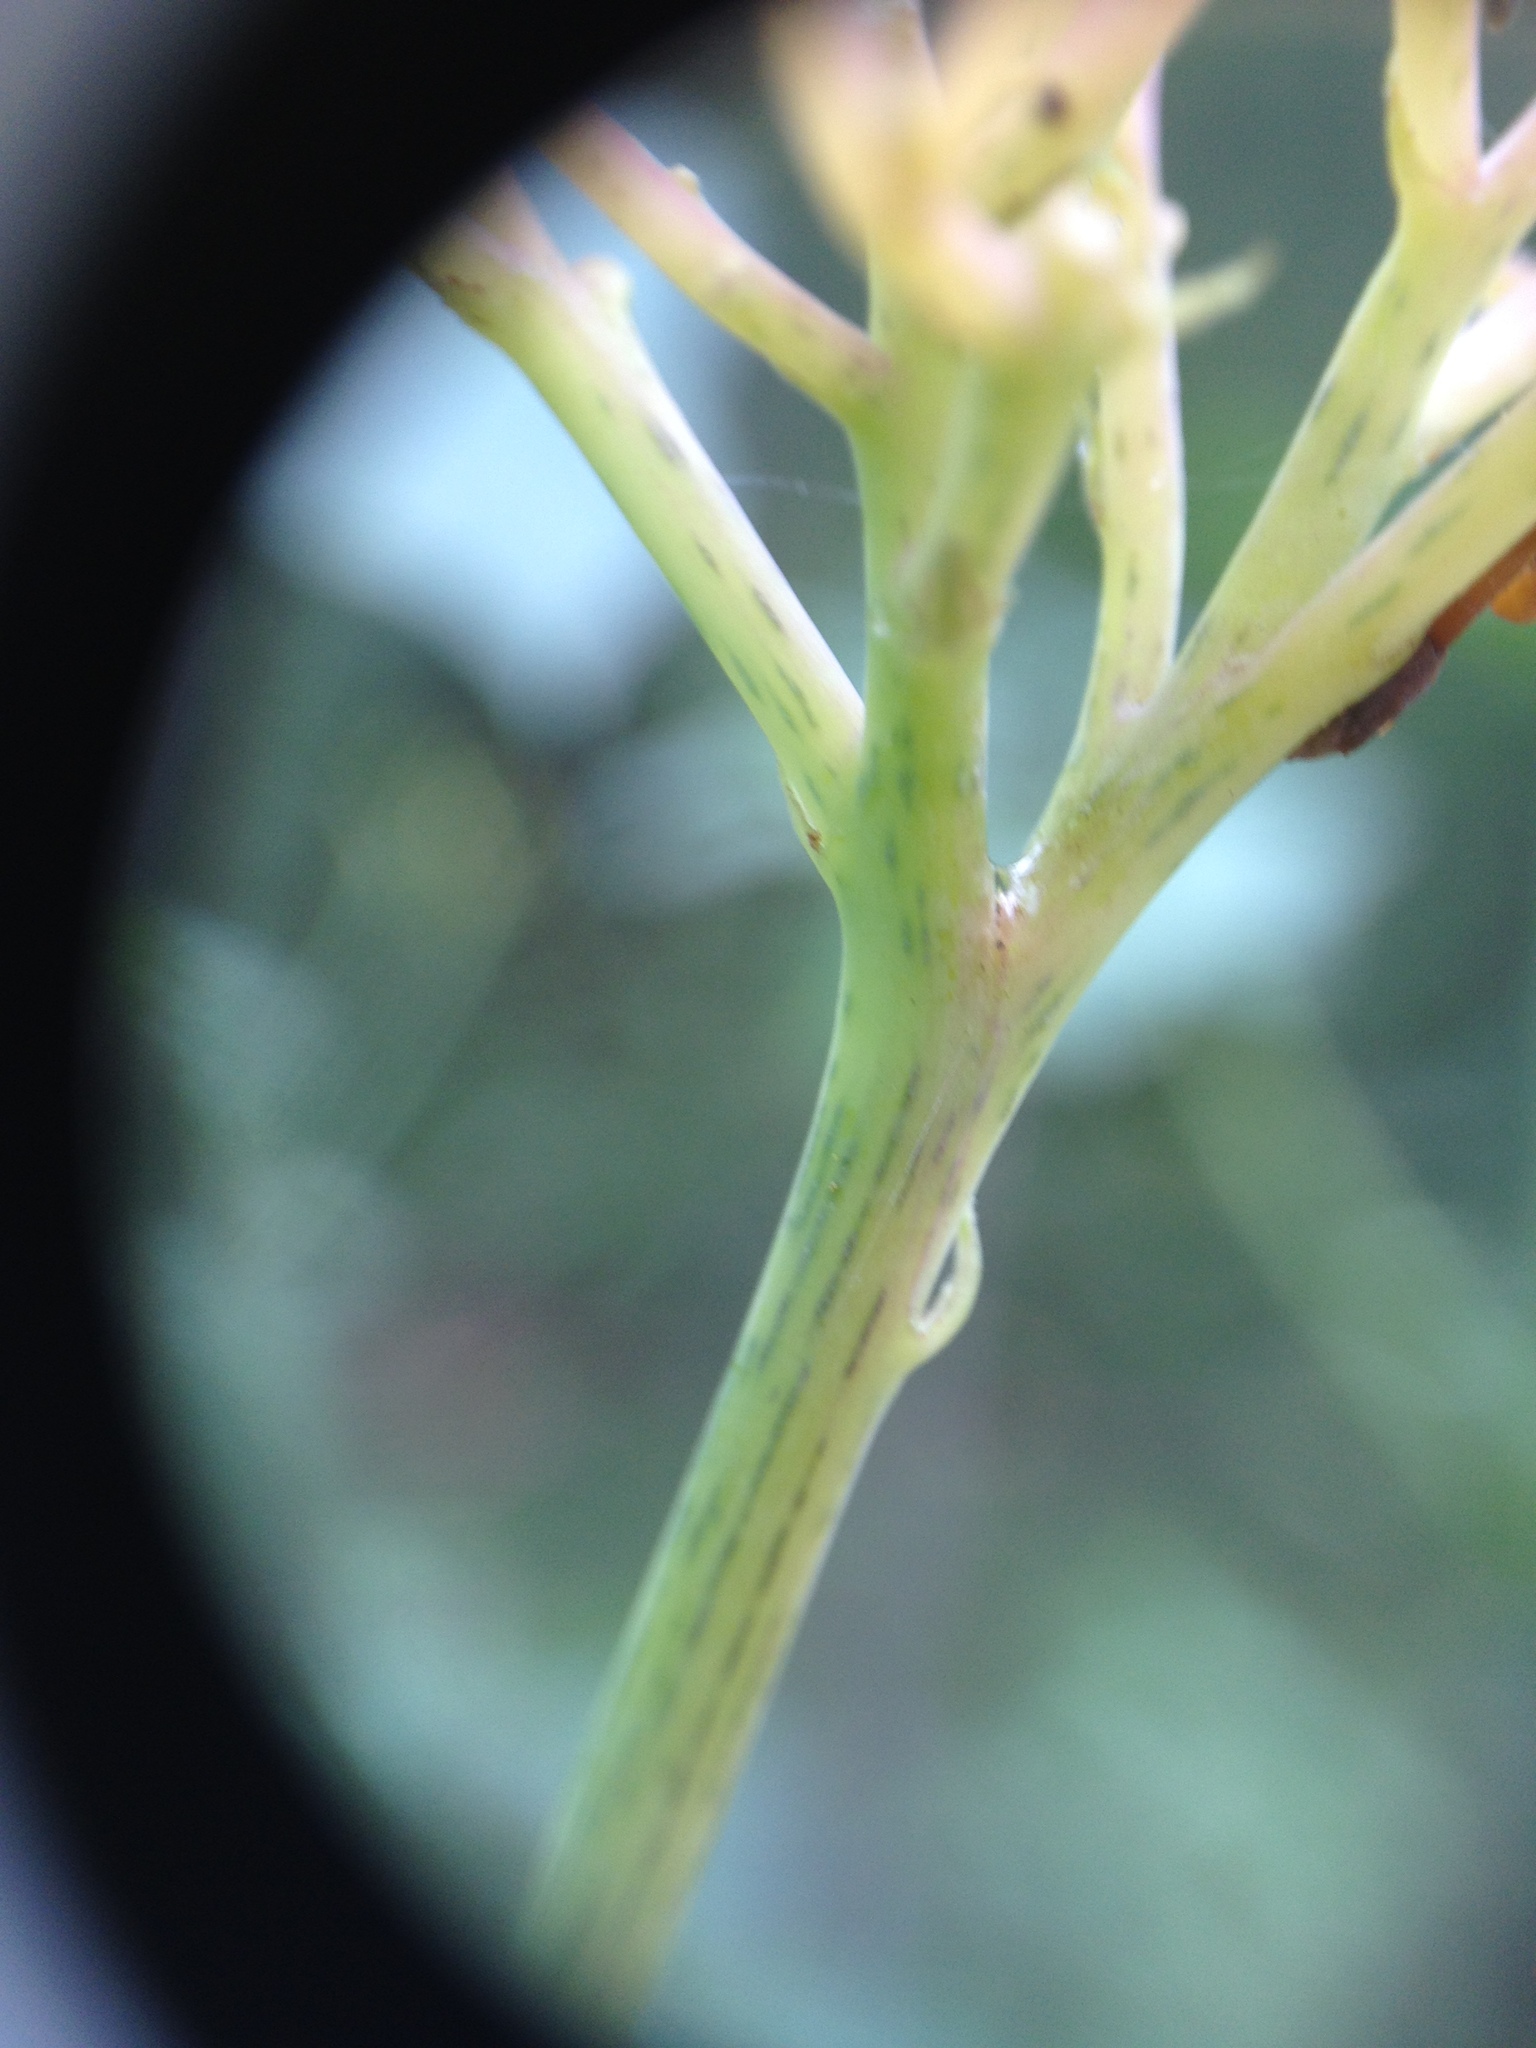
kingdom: Plantae
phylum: Tracheophyta
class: Magnoliopsida
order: Malpighiales
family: Euphorbiaceae
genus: Jatropha
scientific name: Jatropha grossidentata
